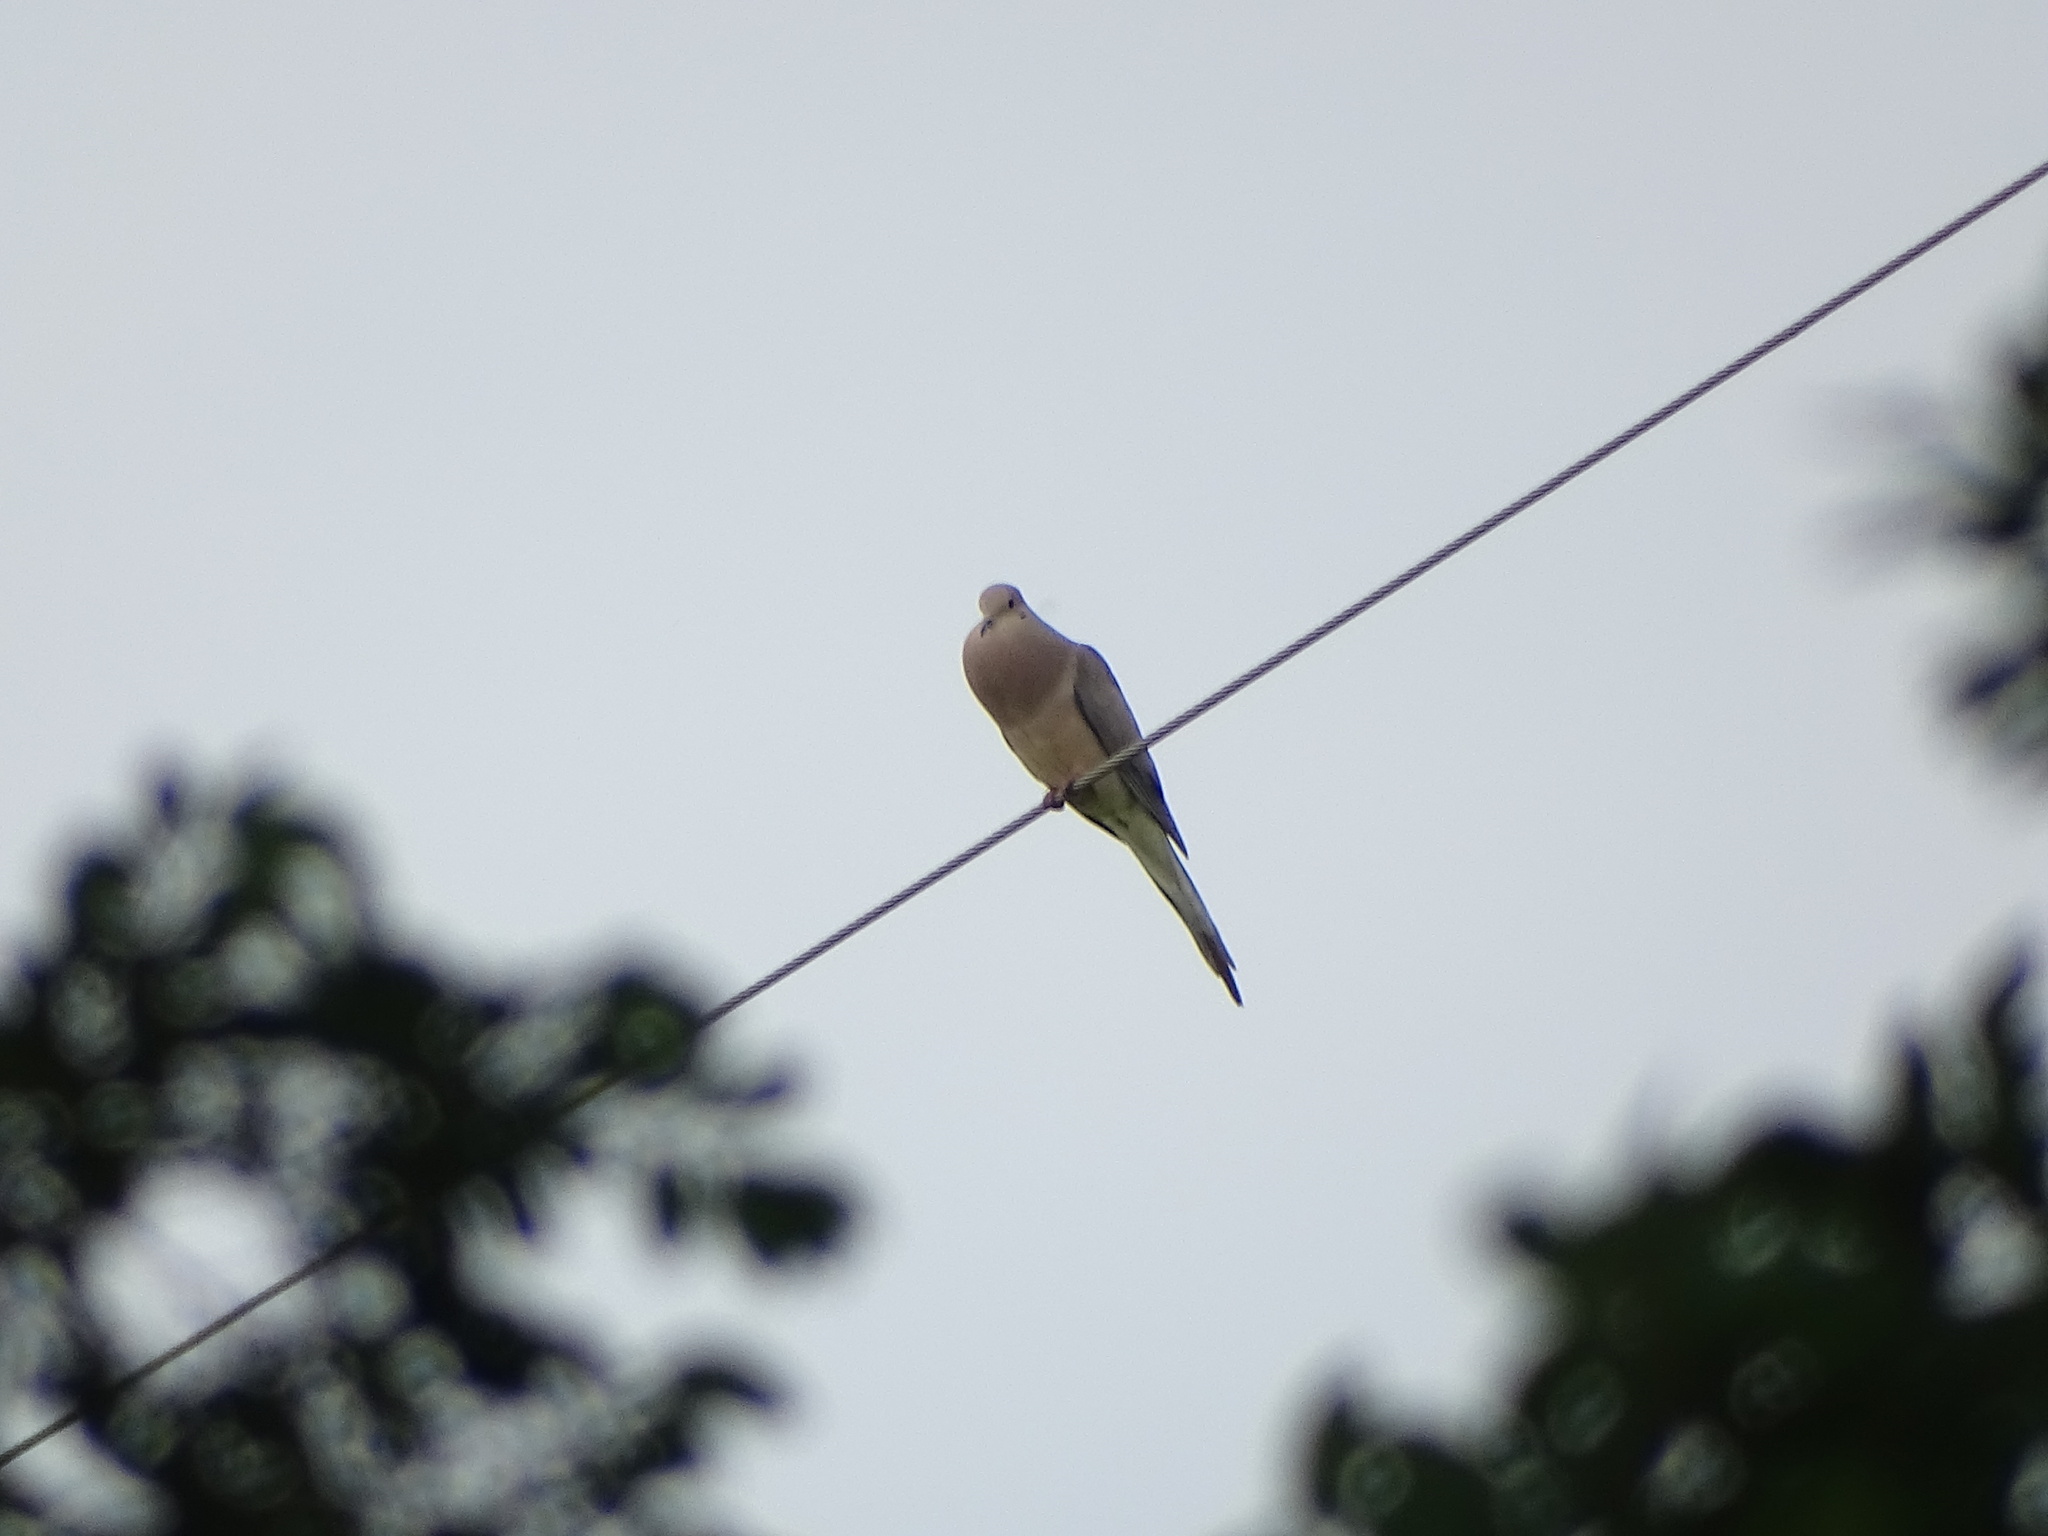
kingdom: Animalia
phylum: Chordata
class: Aves
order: Columbiformes
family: Columbidae
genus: Zenaida
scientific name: Zenaida macroura
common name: Mourning dove
